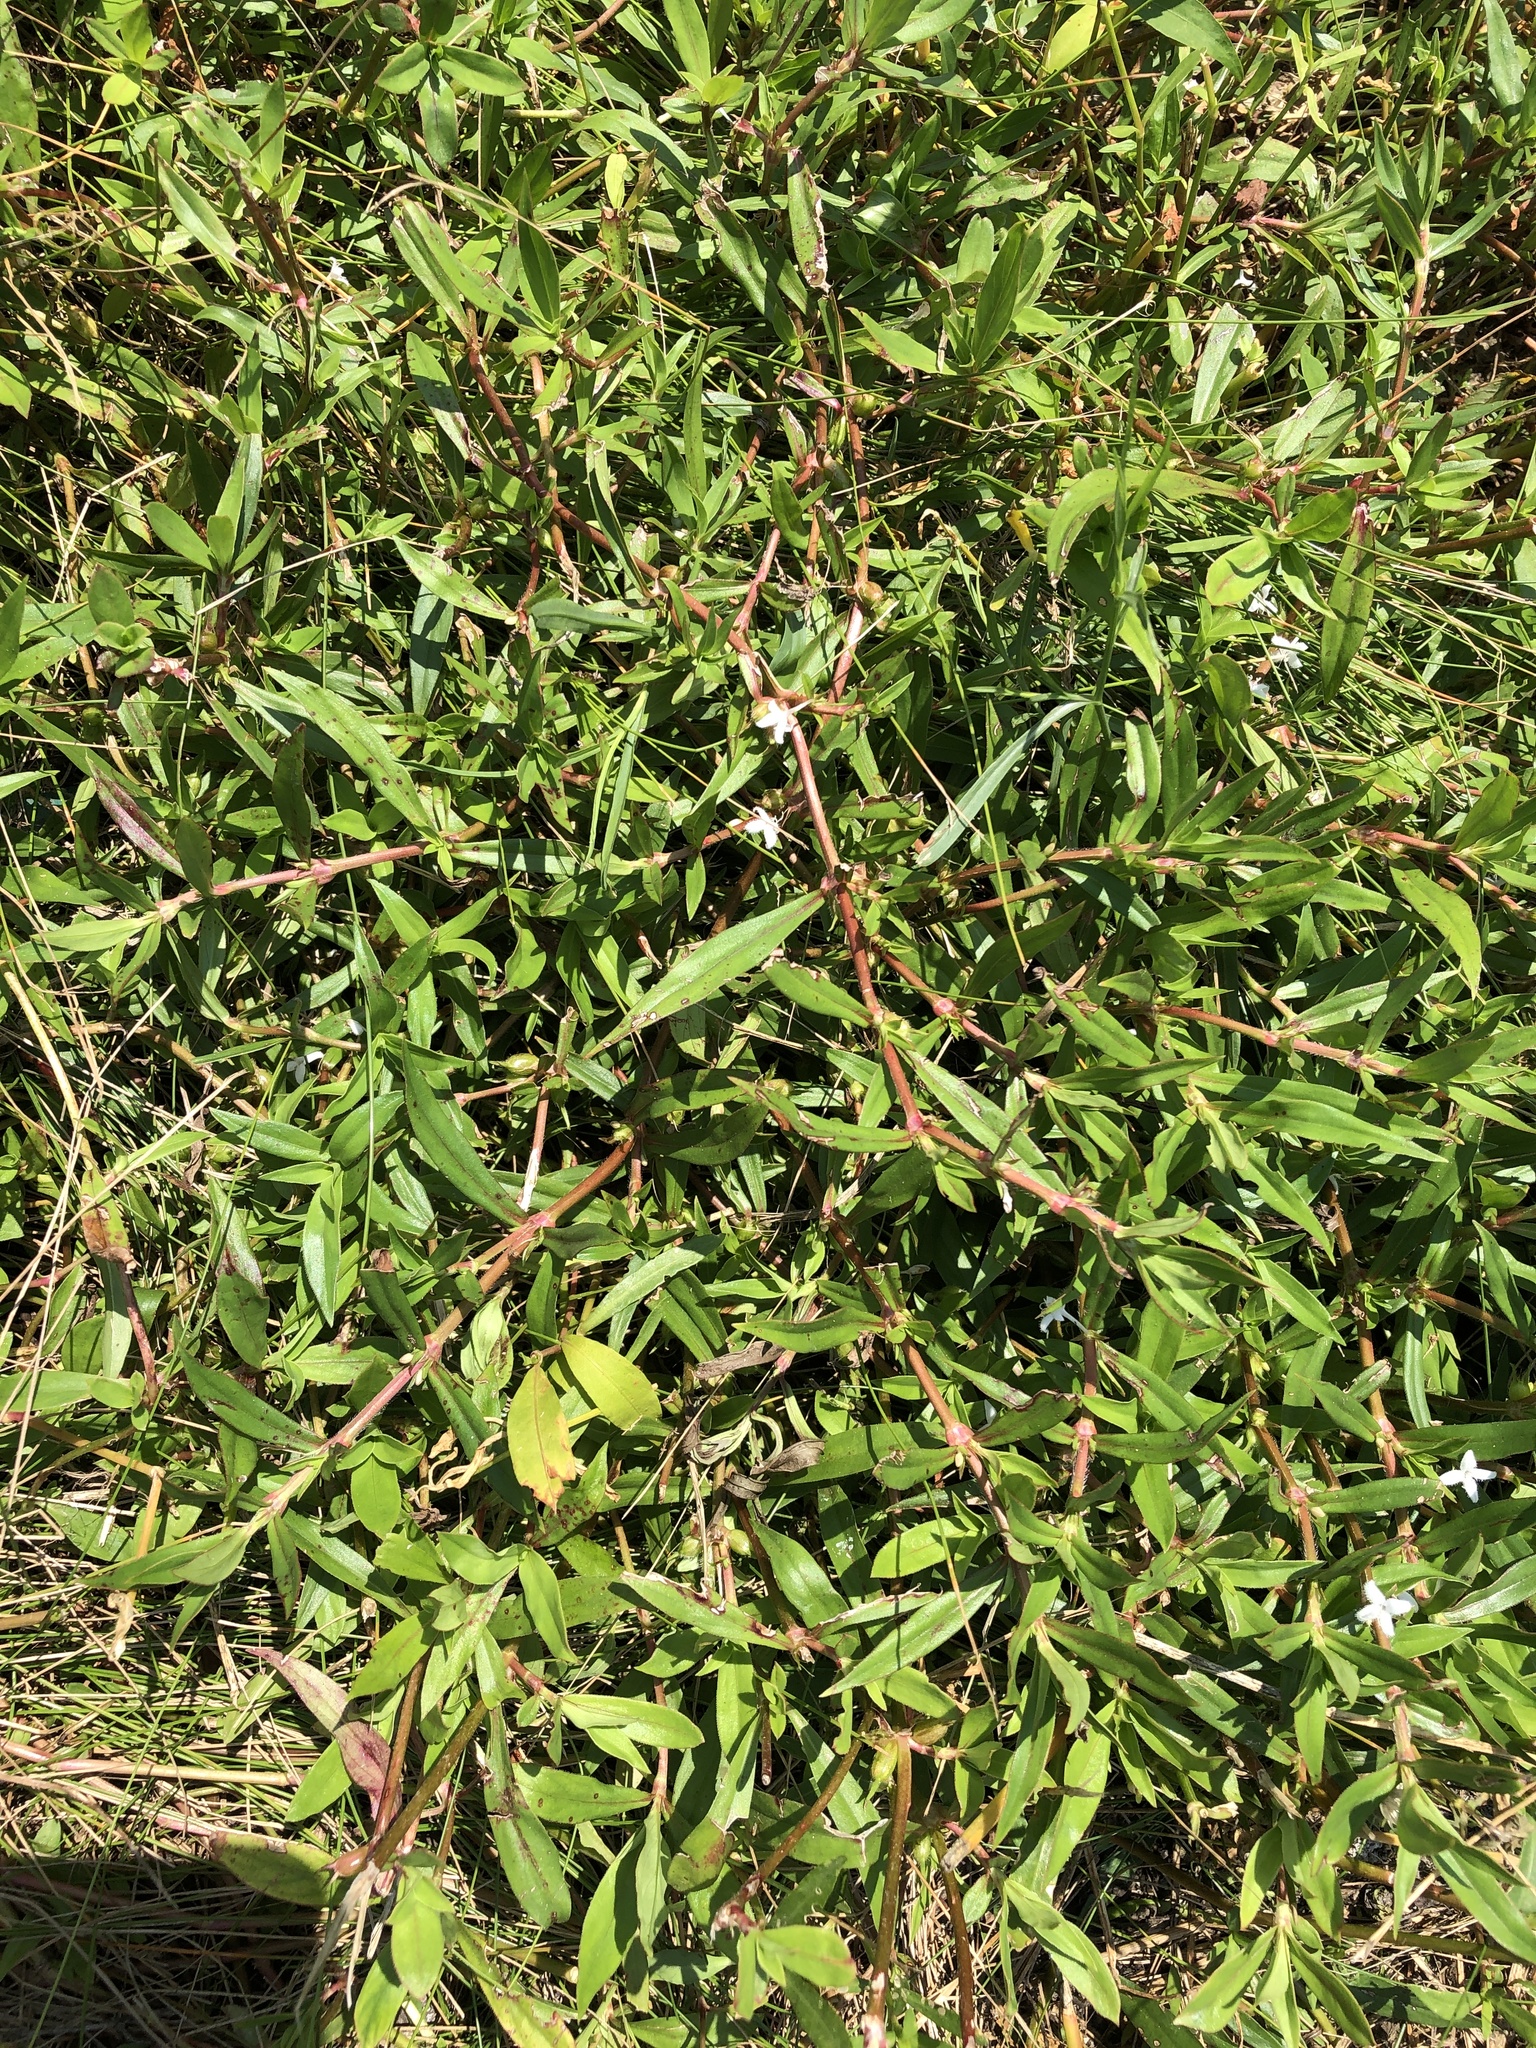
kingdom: Plantae
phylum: Tracheophyta
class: Magnoliopsida
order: Gentianales
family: Rubiaceae
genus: Diodia
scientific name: Diodia virginiana
